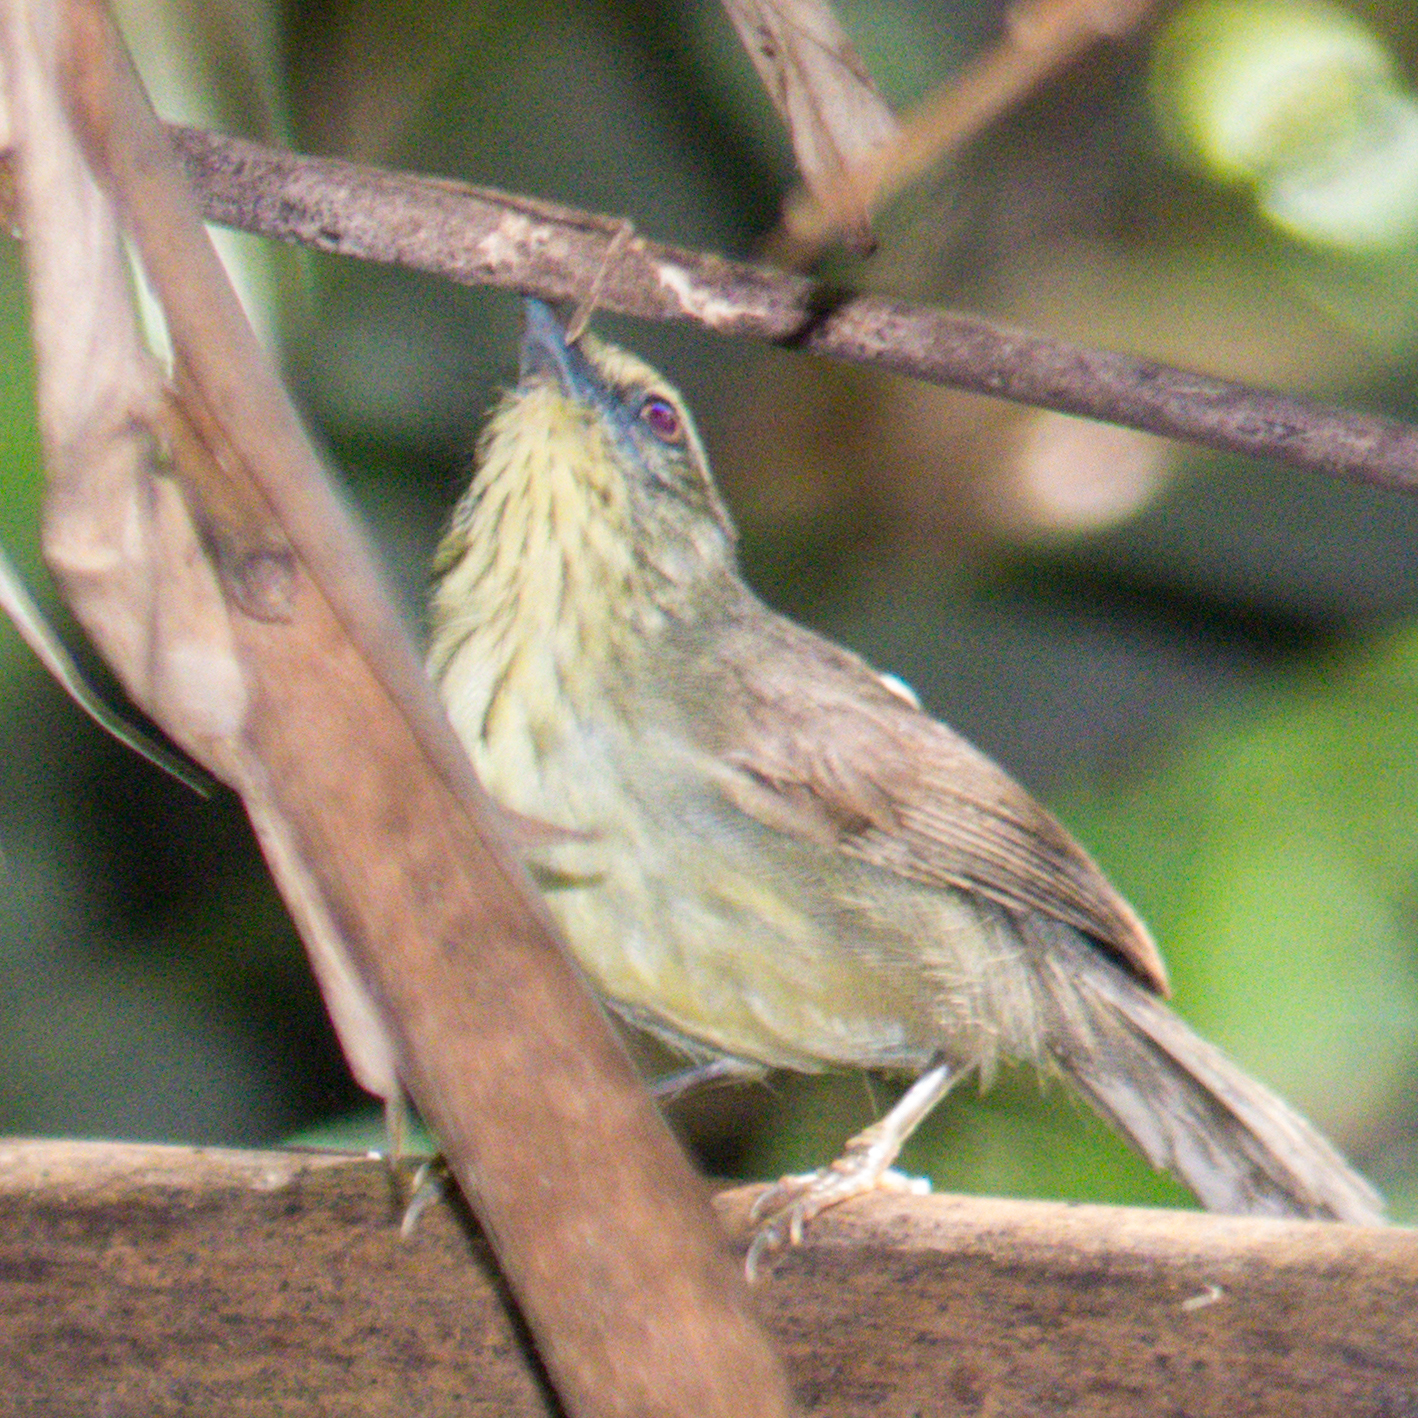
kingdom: Animalia
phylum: Chordata
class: Aves
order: Passeriformes
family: Timaliidae
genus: Macronus
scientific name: Macronus gularis
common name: Striped tit-babbler
